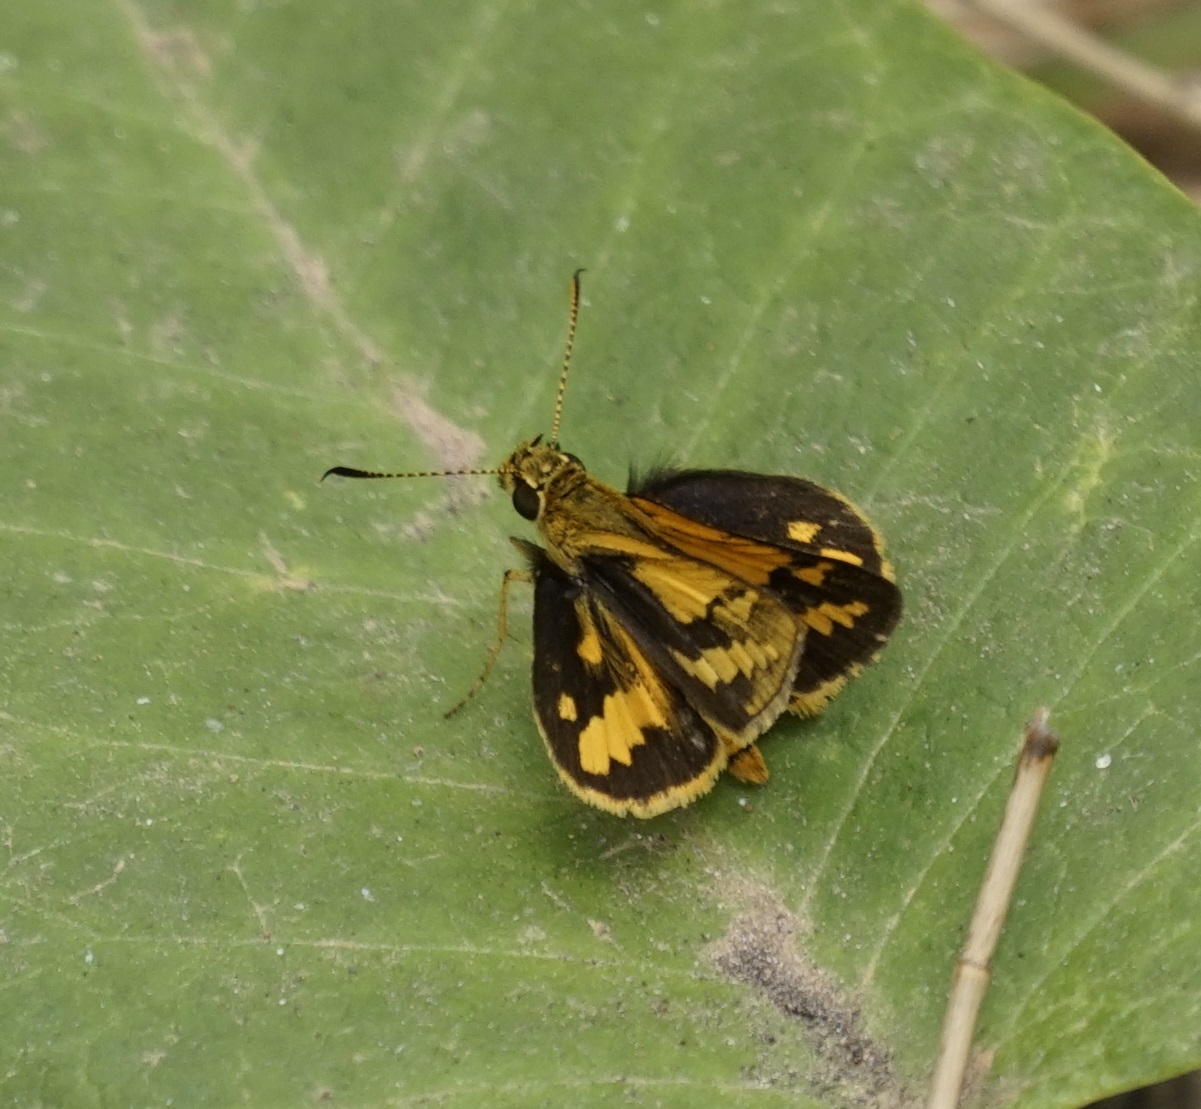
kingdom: Animalia
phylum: Arthropoda
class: Insecta
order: Lepidoptera
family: Hesperiidae
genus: Suniana
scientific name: Suniana sunias
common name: Wide-brand grass-dart
